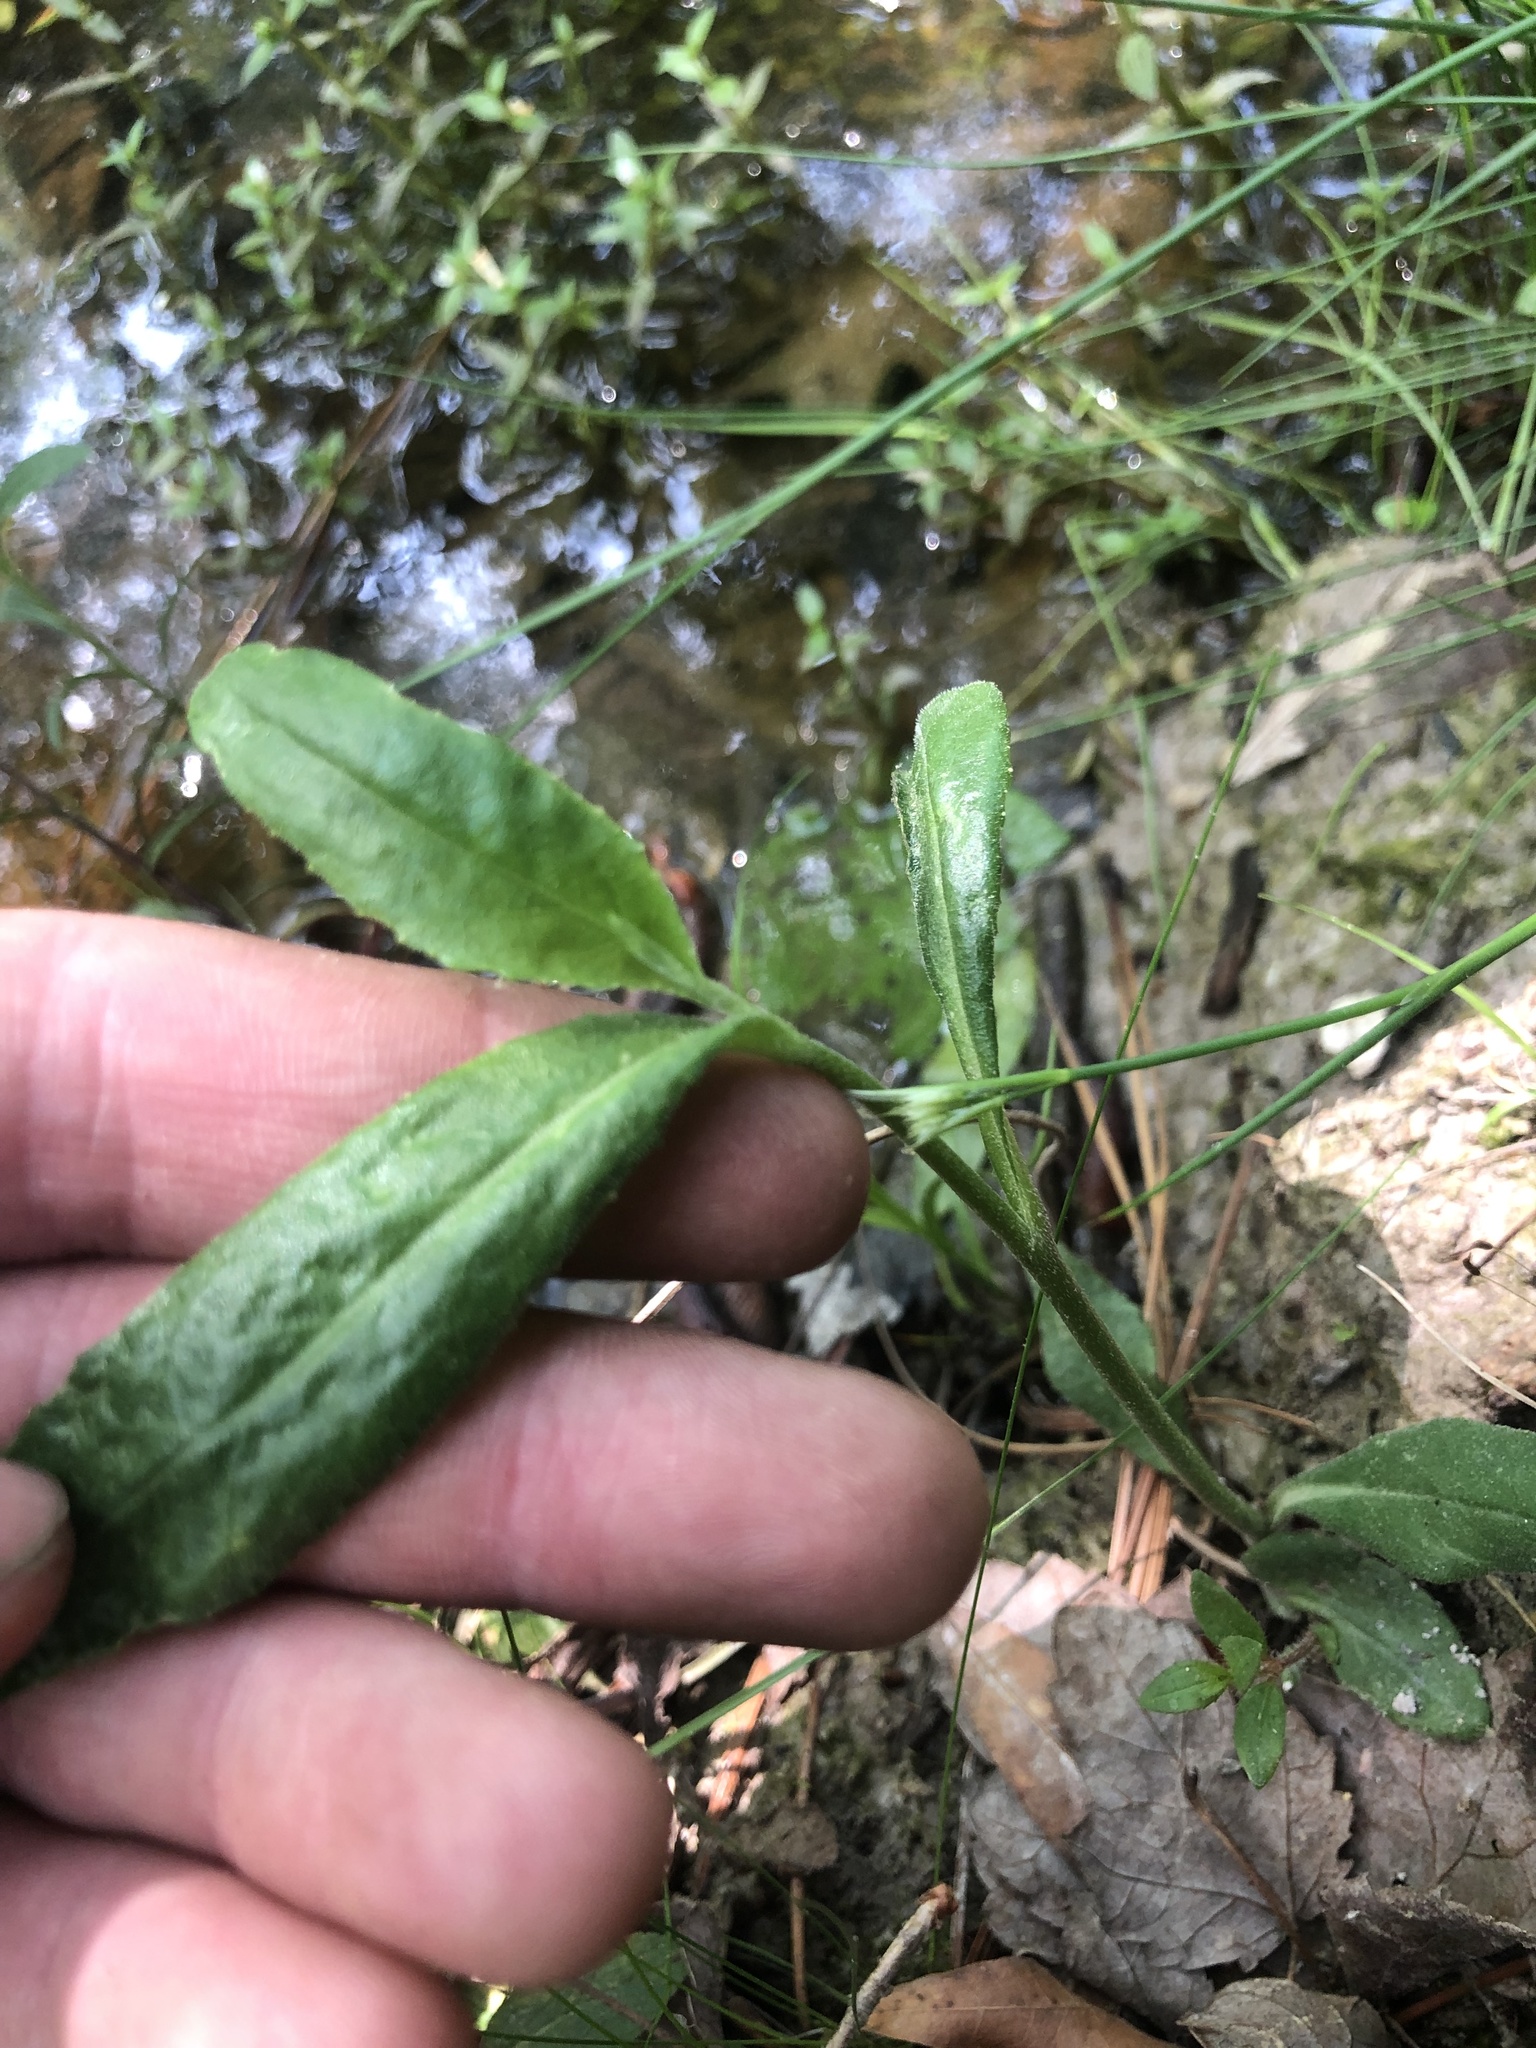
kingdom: Plantae
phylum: Tracheophyta
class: Magnoliopsida
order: Asterales
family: Campanulaceae
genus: Lobelia
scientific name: Lobelia georgiana
